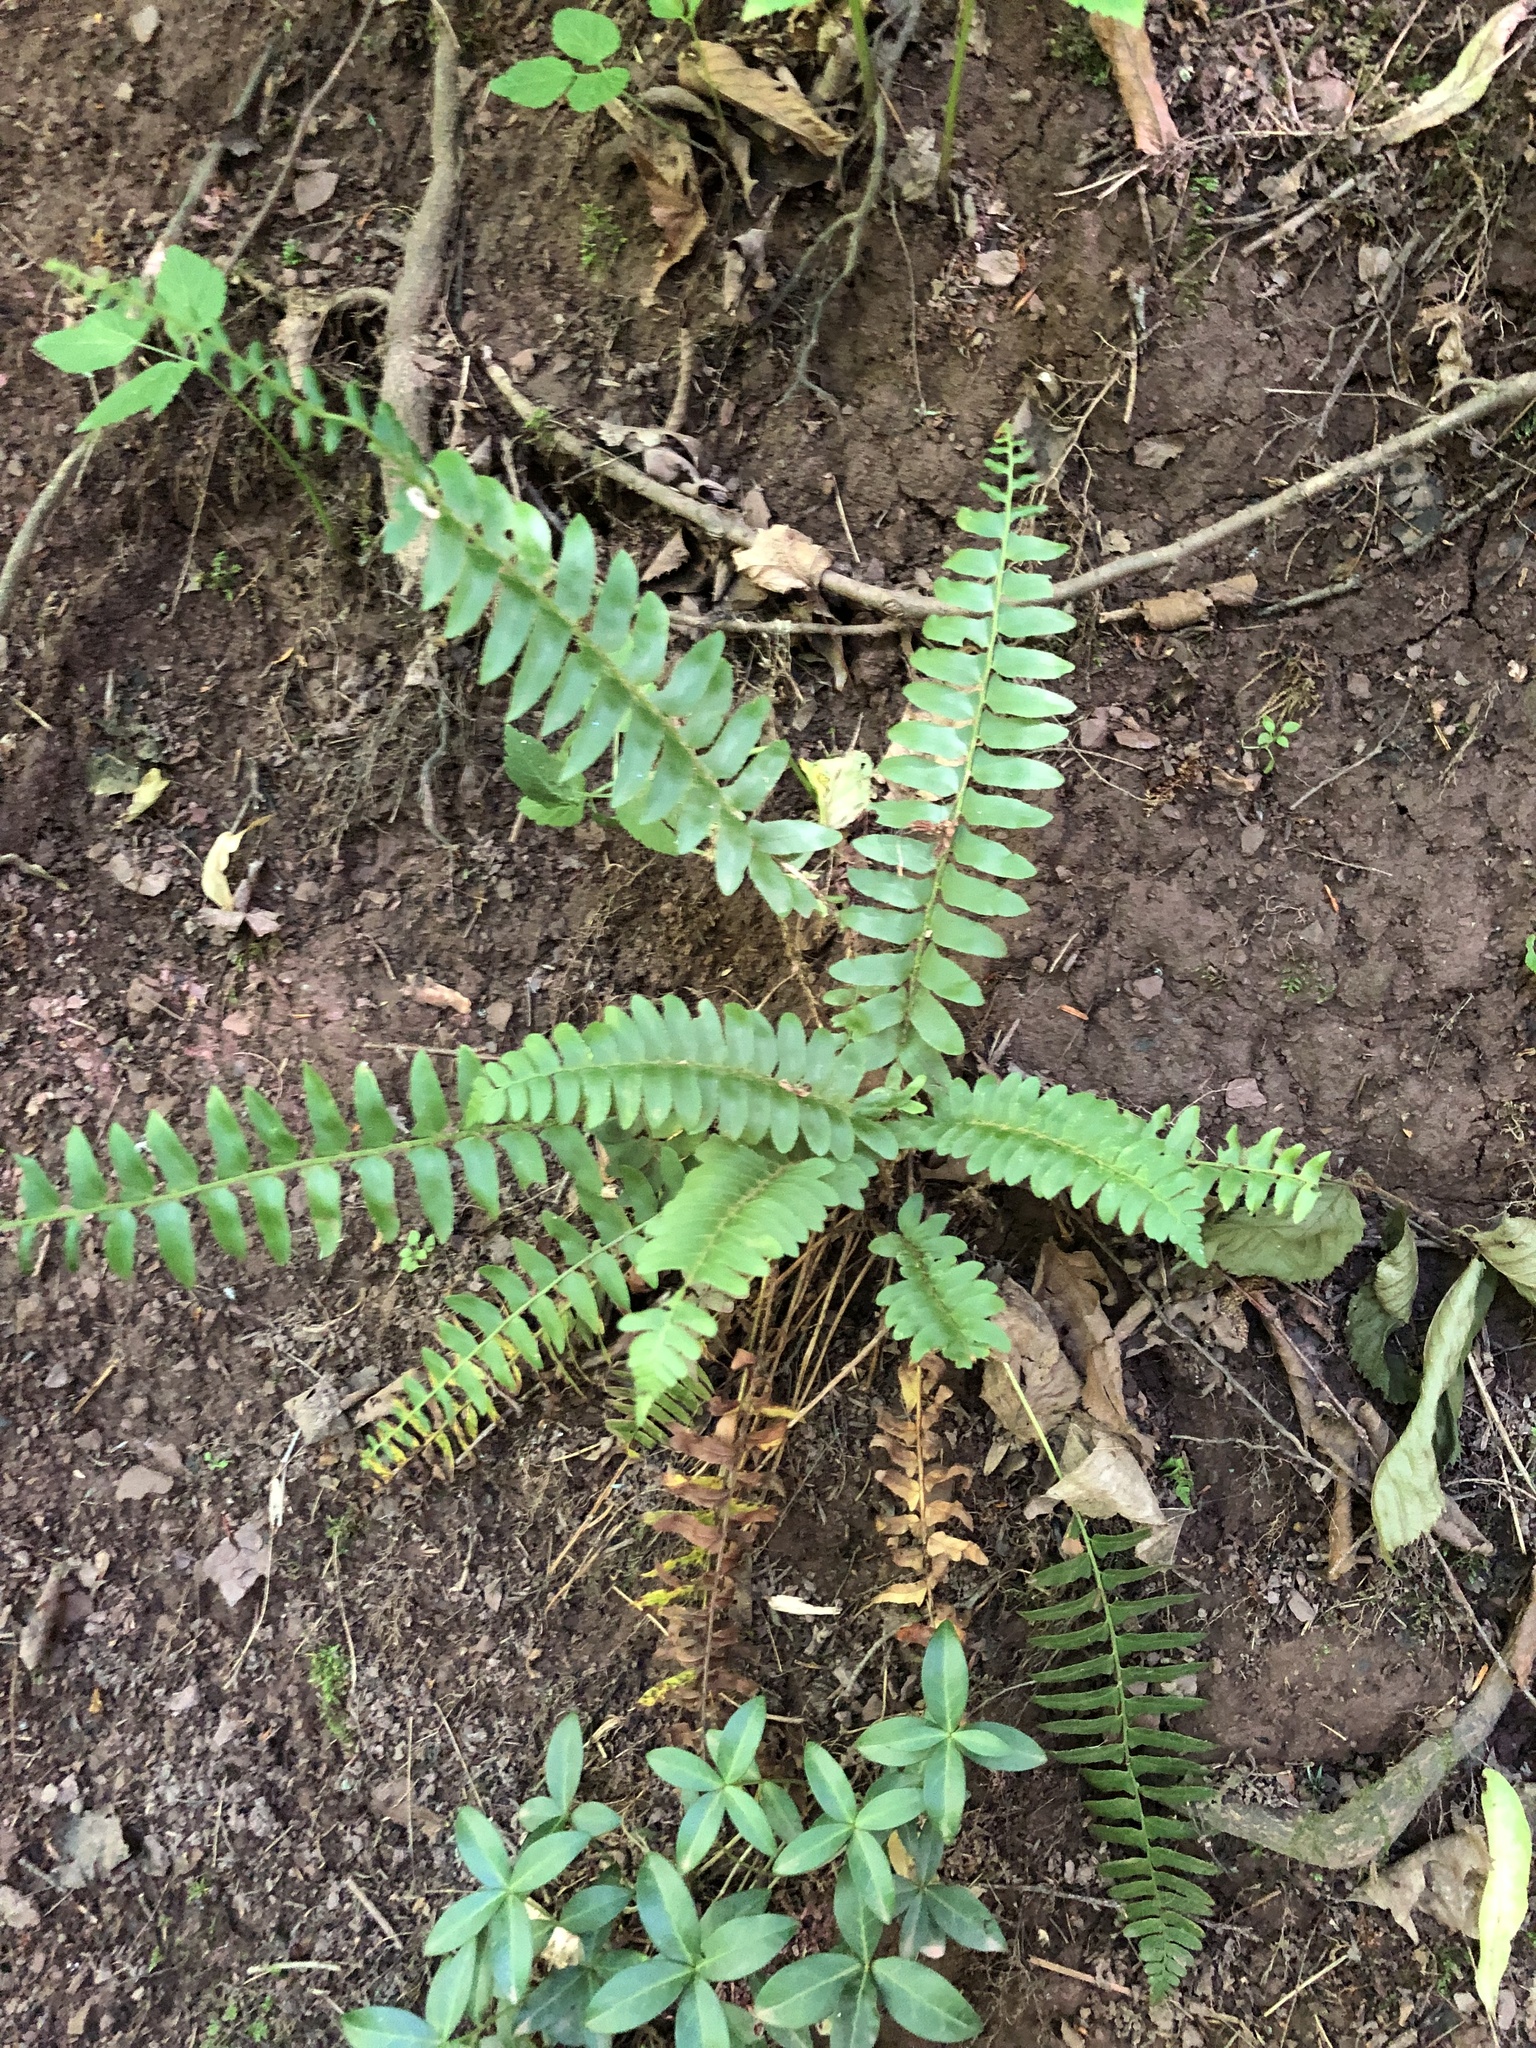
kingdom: Plantae
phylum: Tracheophyta
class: Polypodiopsida
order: Polypodiales
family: Dryopteridaceae
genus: Polystichum
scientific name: Polystichum acrostichoides
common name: Christmas fern
